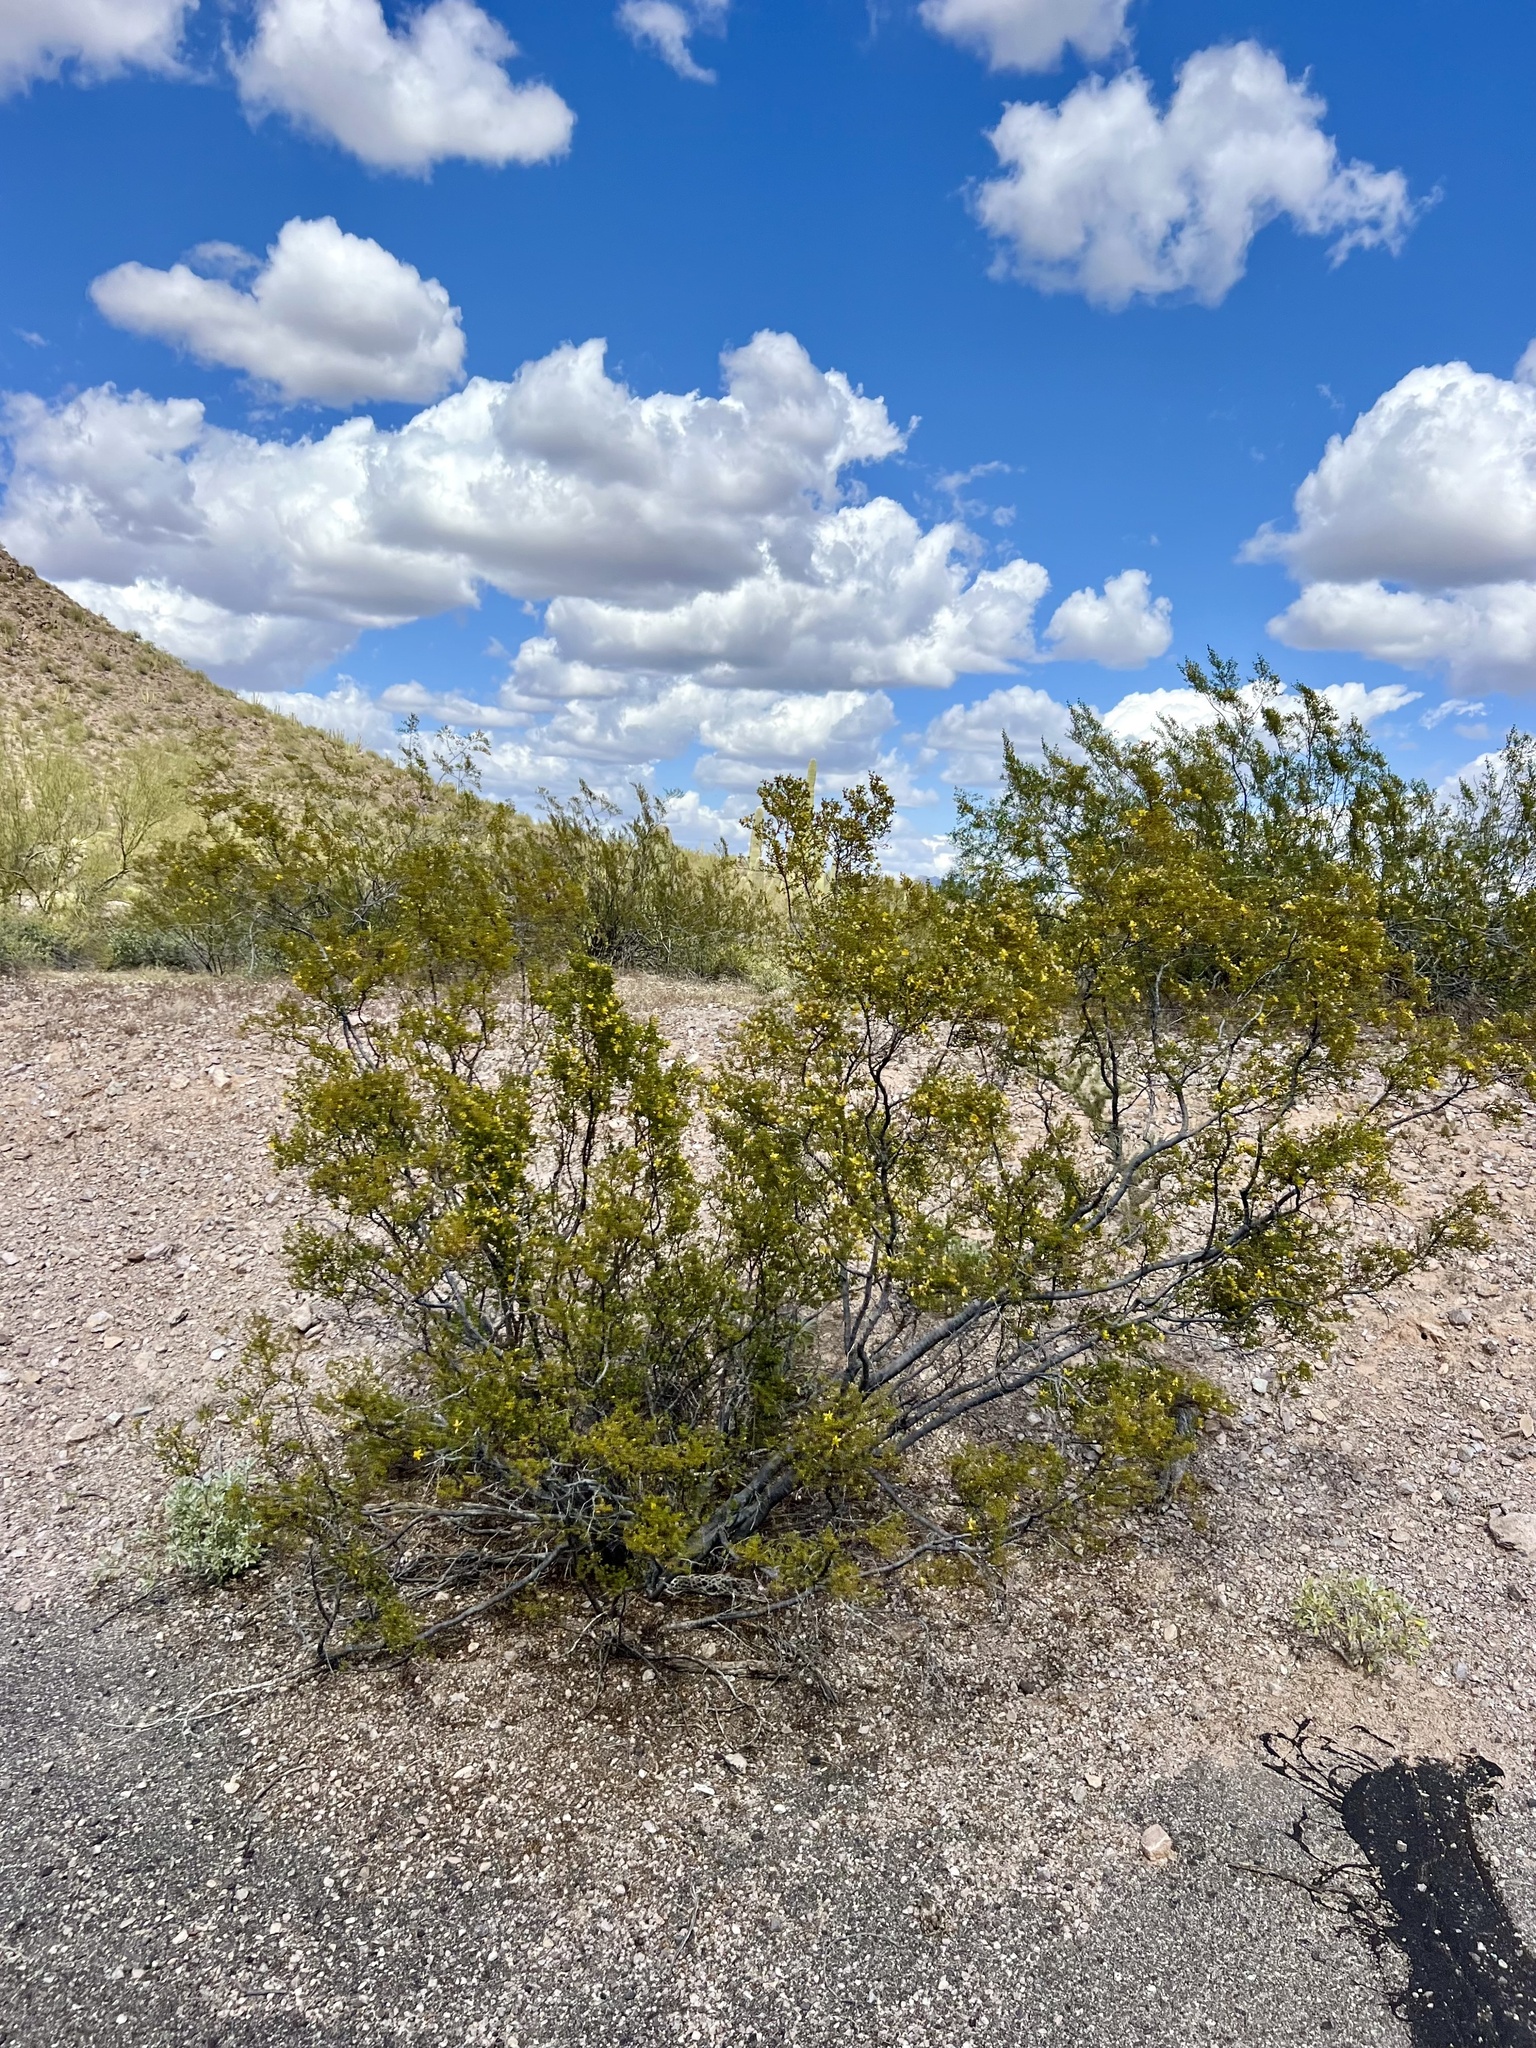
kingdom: Plantae
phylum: Tracheophyta
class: Magnoliopsida
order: Zygophyllales
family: Zygophyllaceae
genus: Larrea
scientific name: Larrea tridentata
